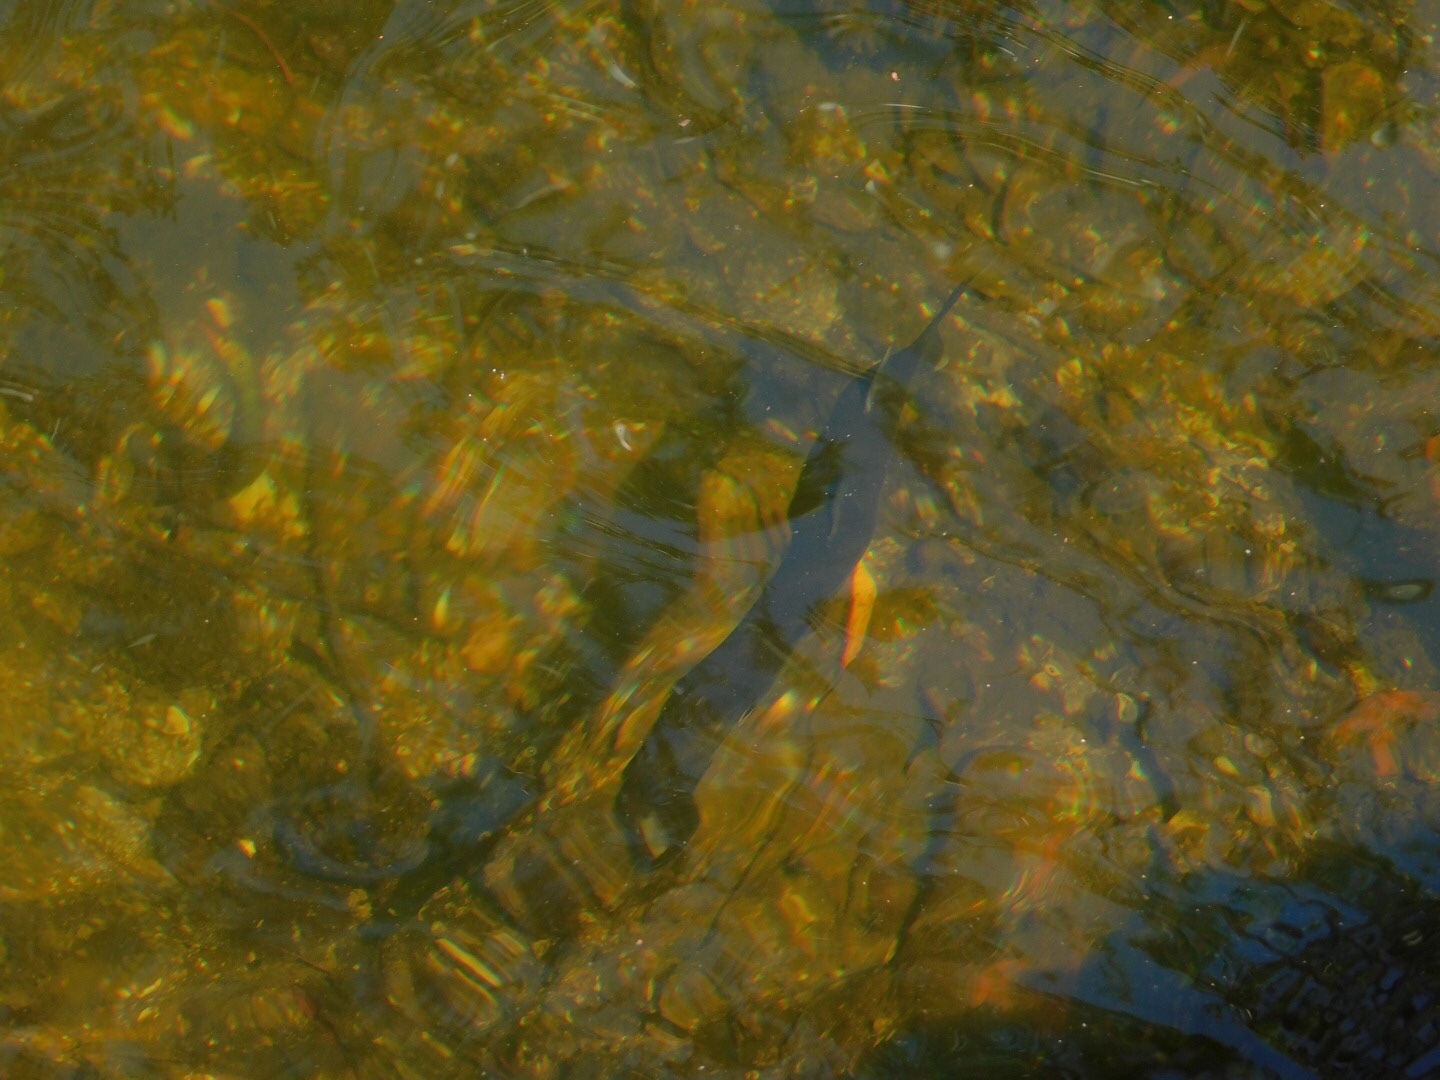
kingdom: Animalia
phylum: Chordata
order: Perciformes
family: Sphyraenidae
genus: Sphyraena
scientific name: Sphyraena barracuda
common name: Great barracuda
